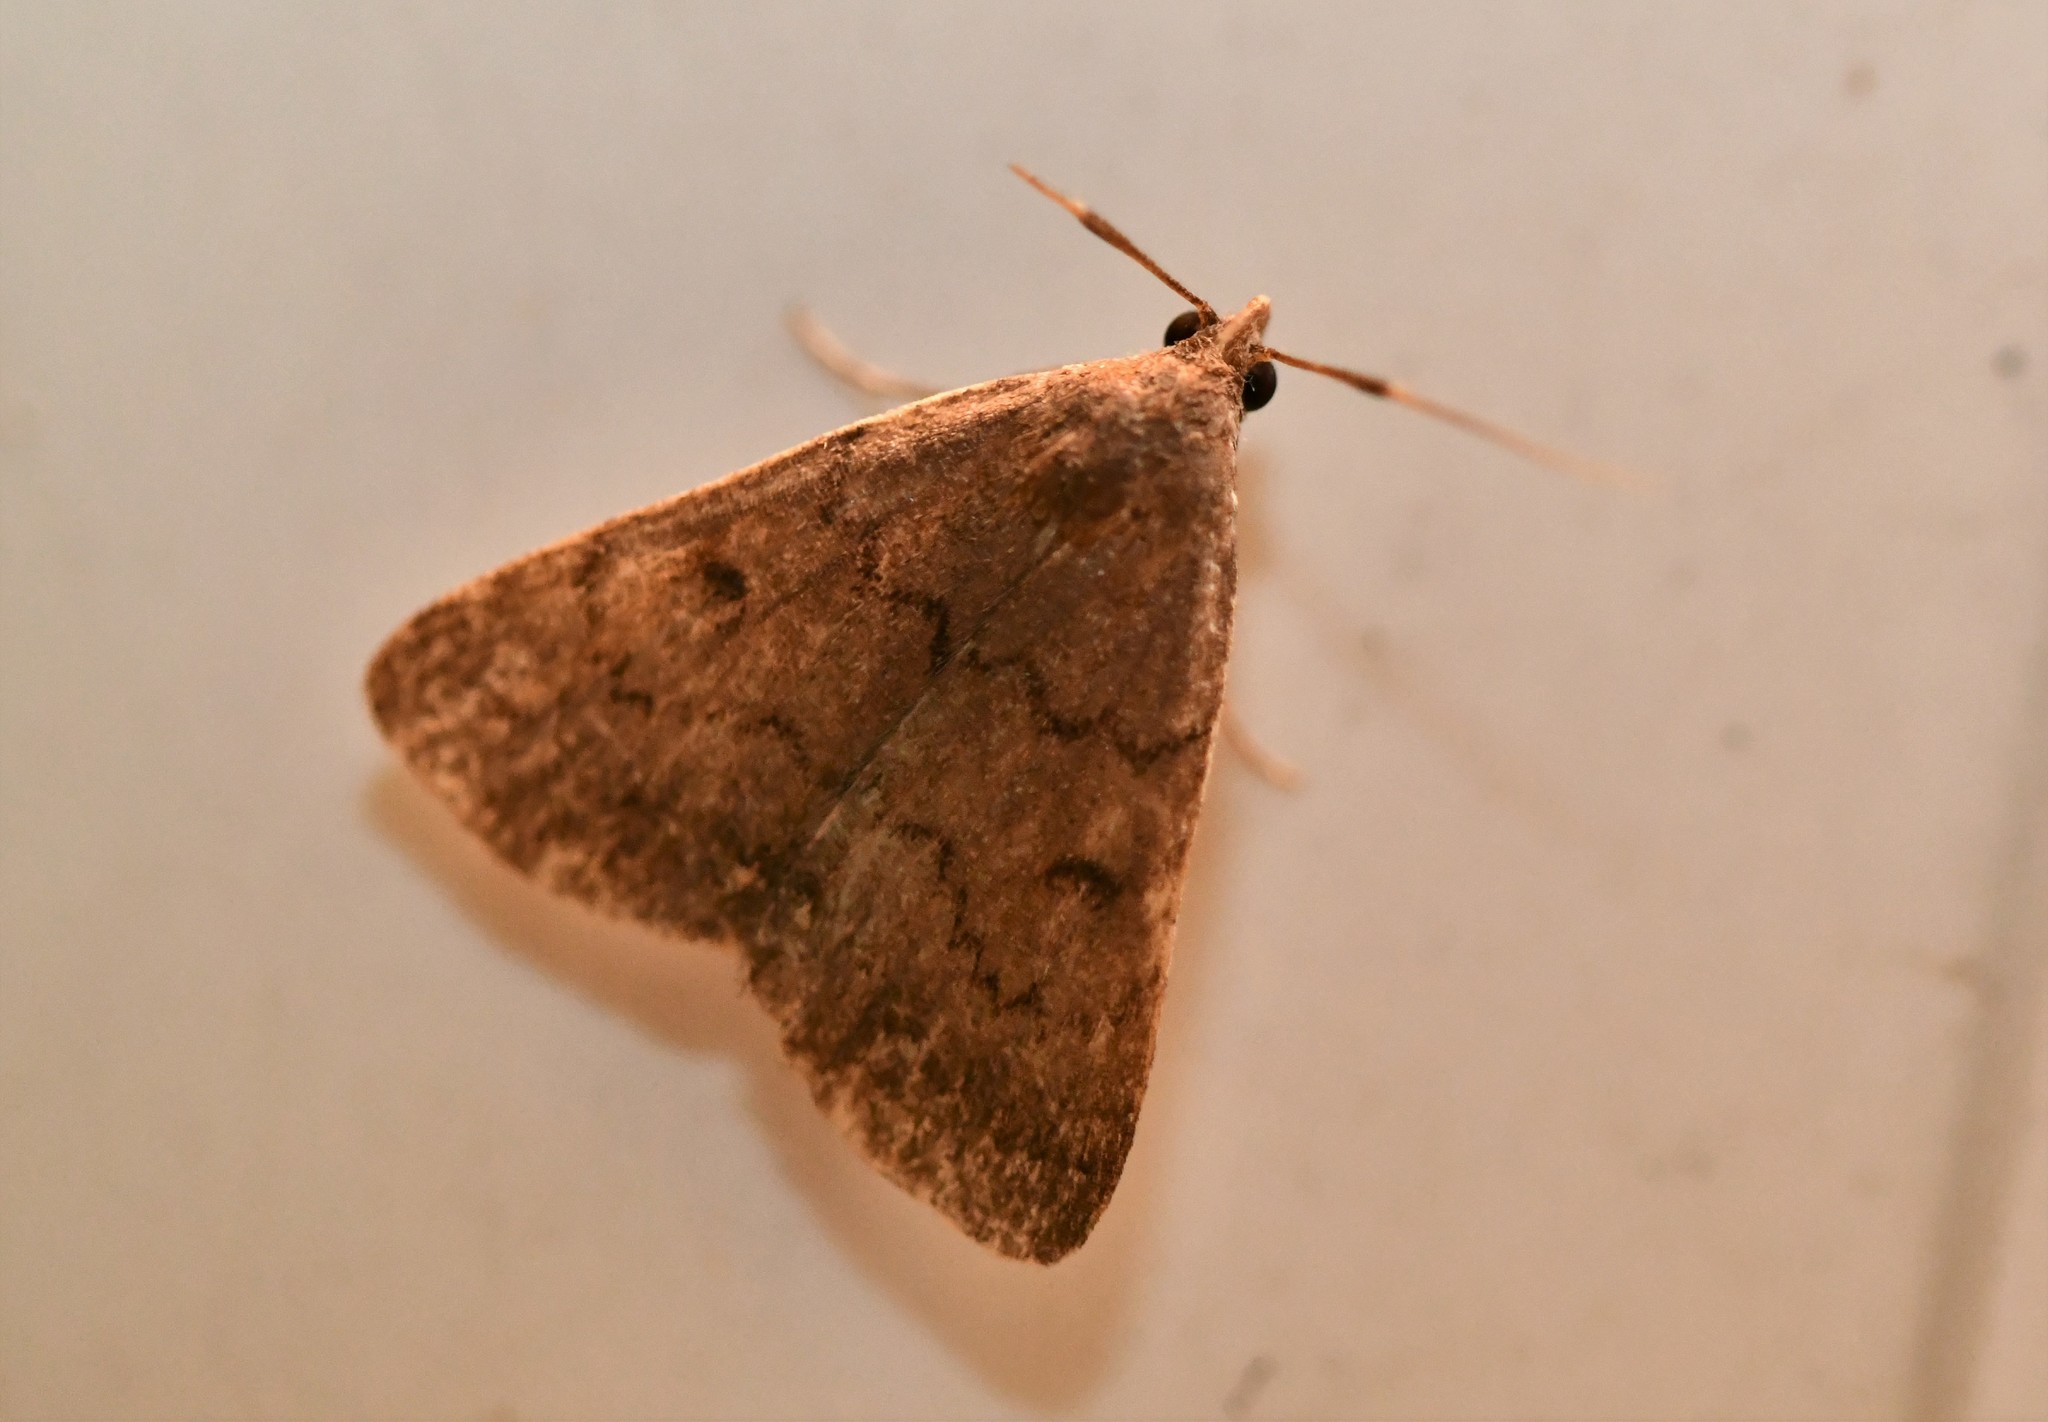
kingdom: Animalia
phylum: Arthropoda
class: Insecta
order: Lepidoptera
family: Erebidae
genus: Nodaria
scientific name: Nodaria nodosalis
